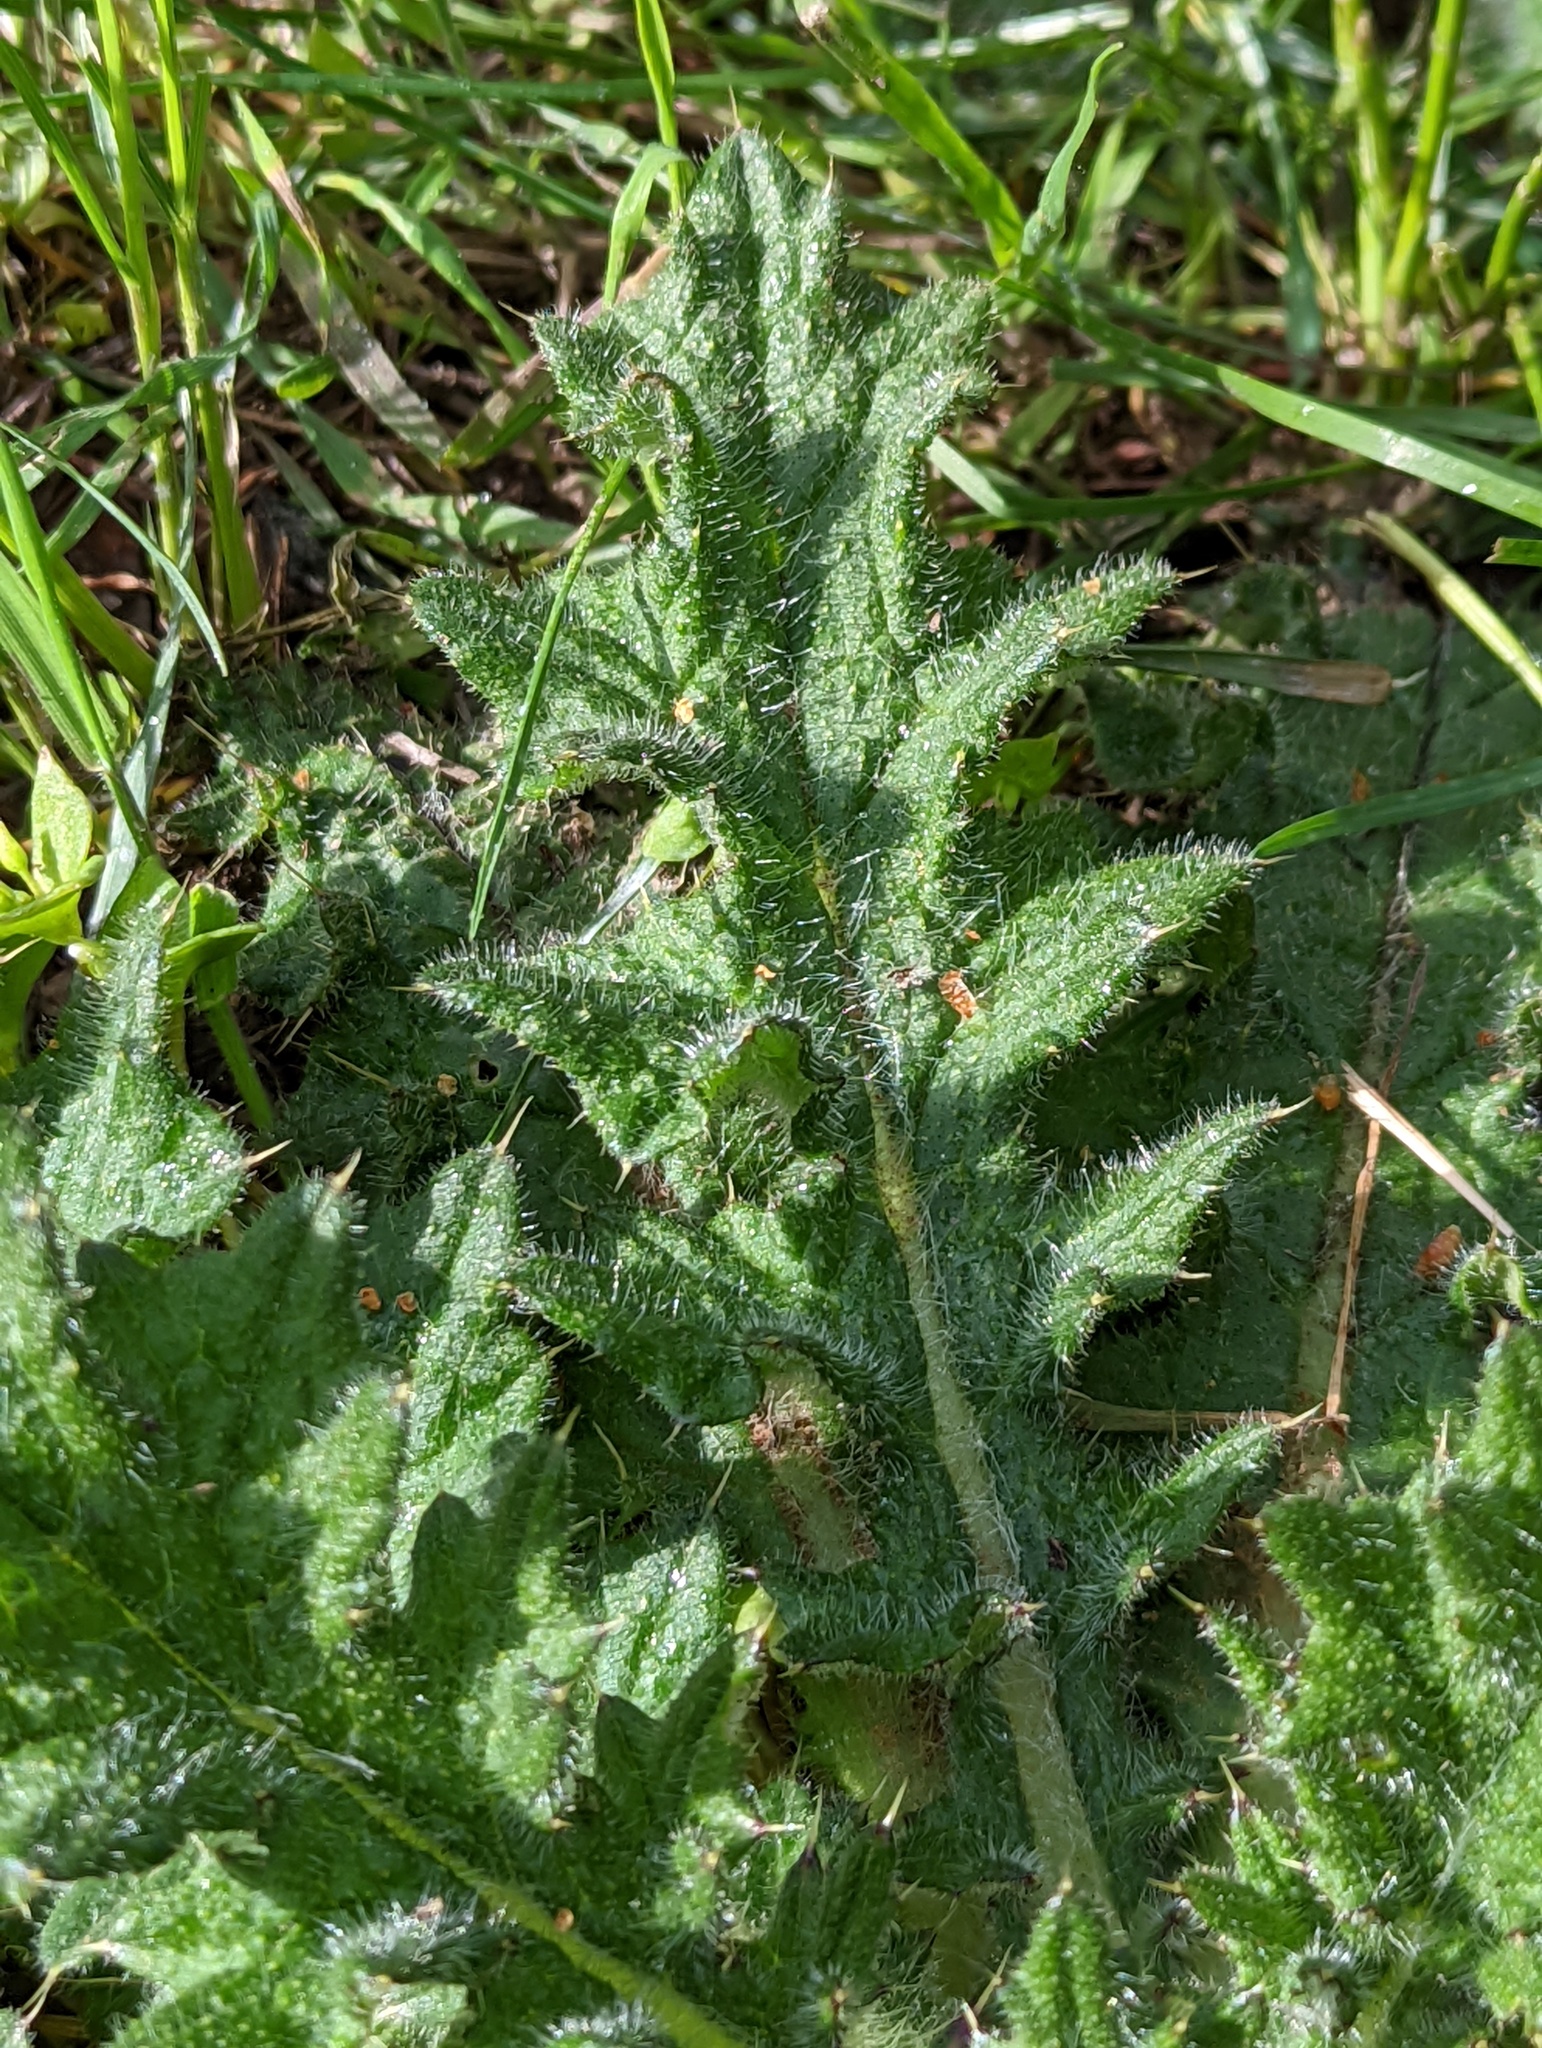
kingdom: Plantae
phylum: Tracheophyta
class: Magnoliopsida
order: Asterales
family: Asteraceae
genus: Cirsium
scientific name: Cirsium vulgare
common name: Bull thistle
